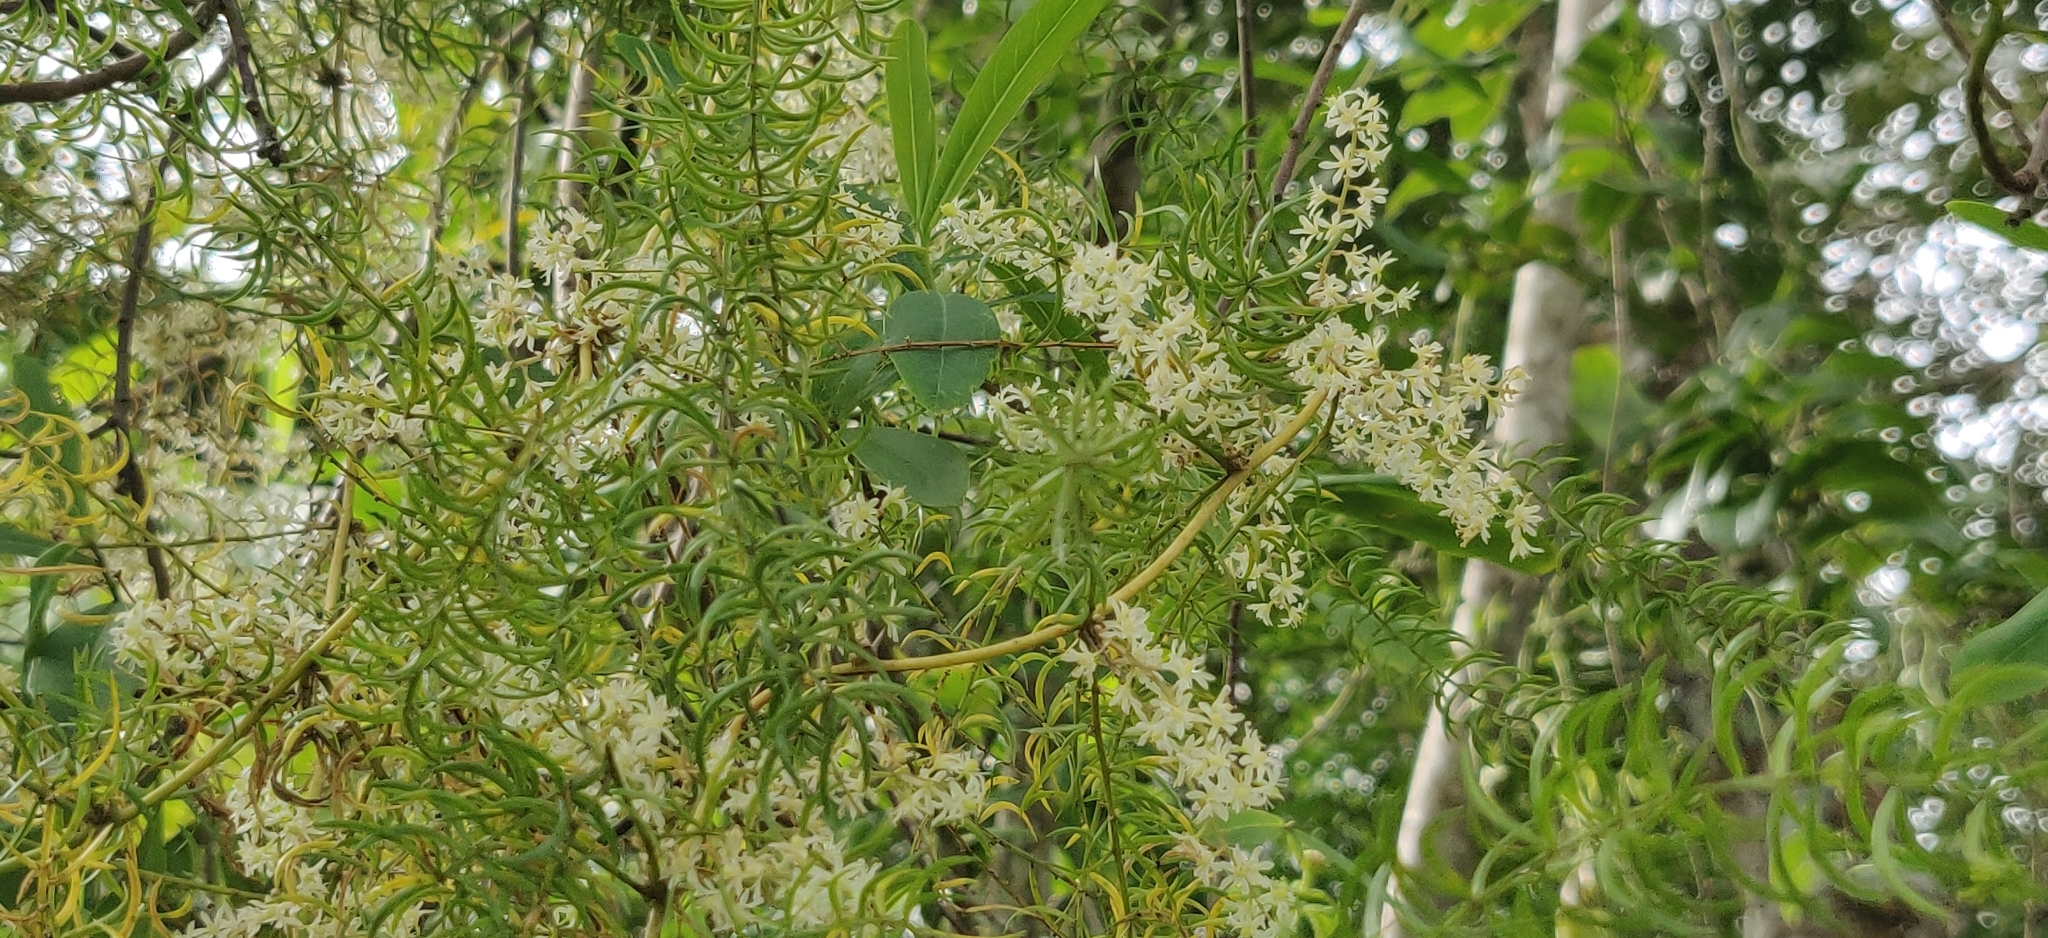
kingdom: Plantae
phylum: Tracheophyta
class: Liliopsida
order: Asparagales
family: Asparagaceae
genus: Asparagus
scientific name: Asparagus racemosus
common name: Asparagus-fern
